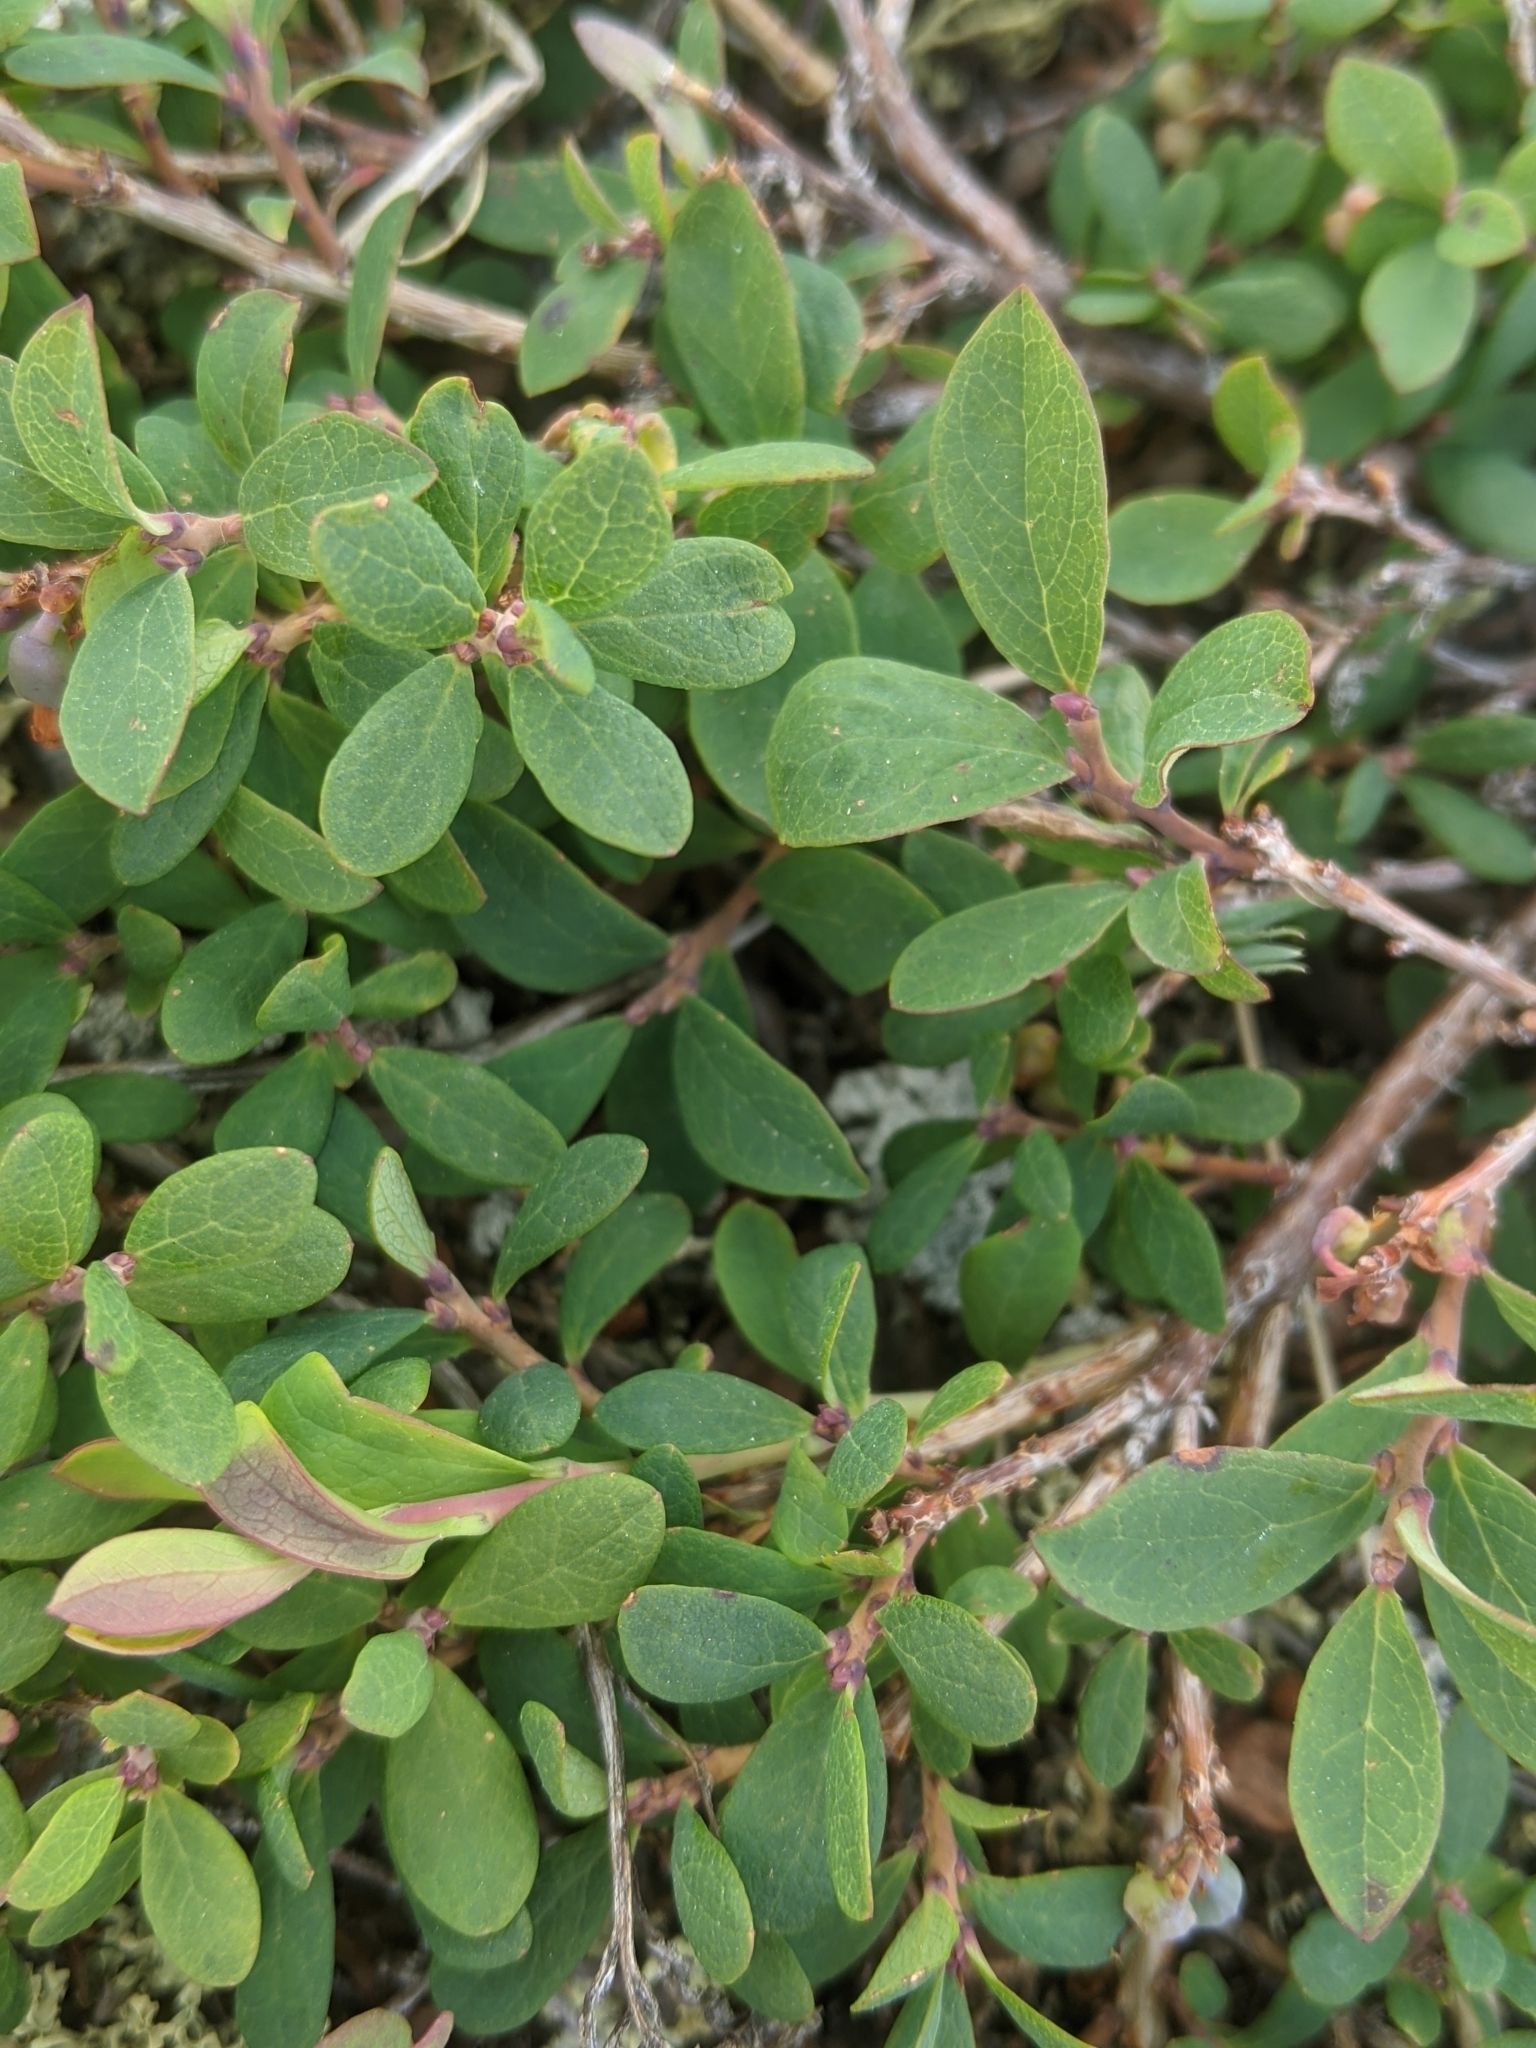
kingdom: Plantae
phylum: Tracheophyta
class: Magnoliopsida
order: Ericales
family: Ericaceae
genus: Vaccinium
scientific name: Vaccinium uliginosum
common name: Bog bilberry
